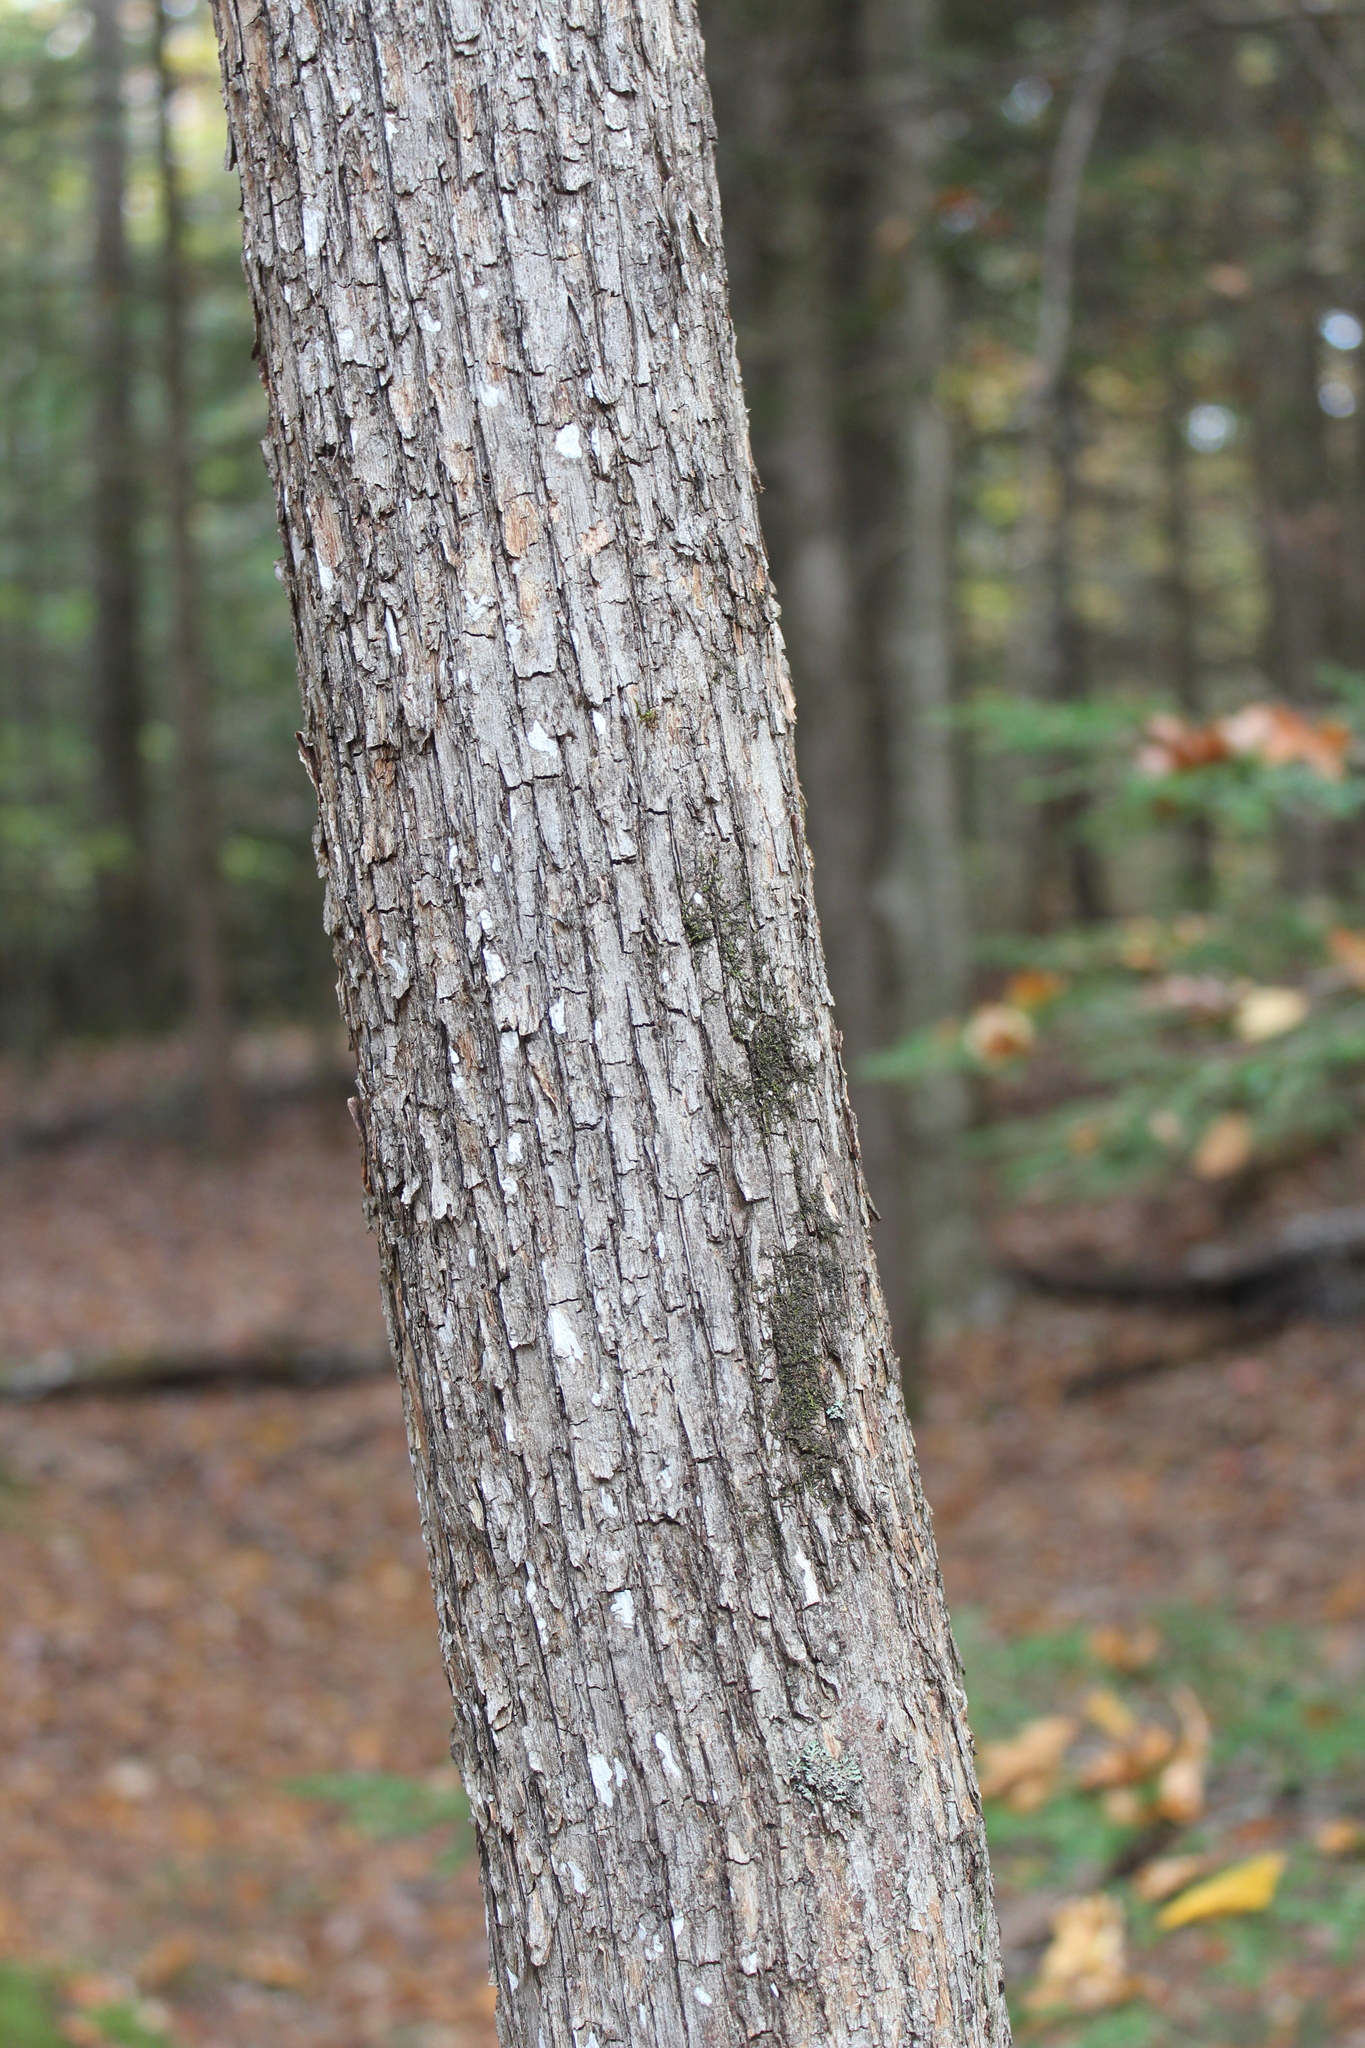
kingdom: Plantae
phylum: Tracheophyta
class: Magnoliopsida
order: Fagales
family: Betulaceae
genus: Ostrya
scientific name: Ostrya virginiana
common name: Ironwood
